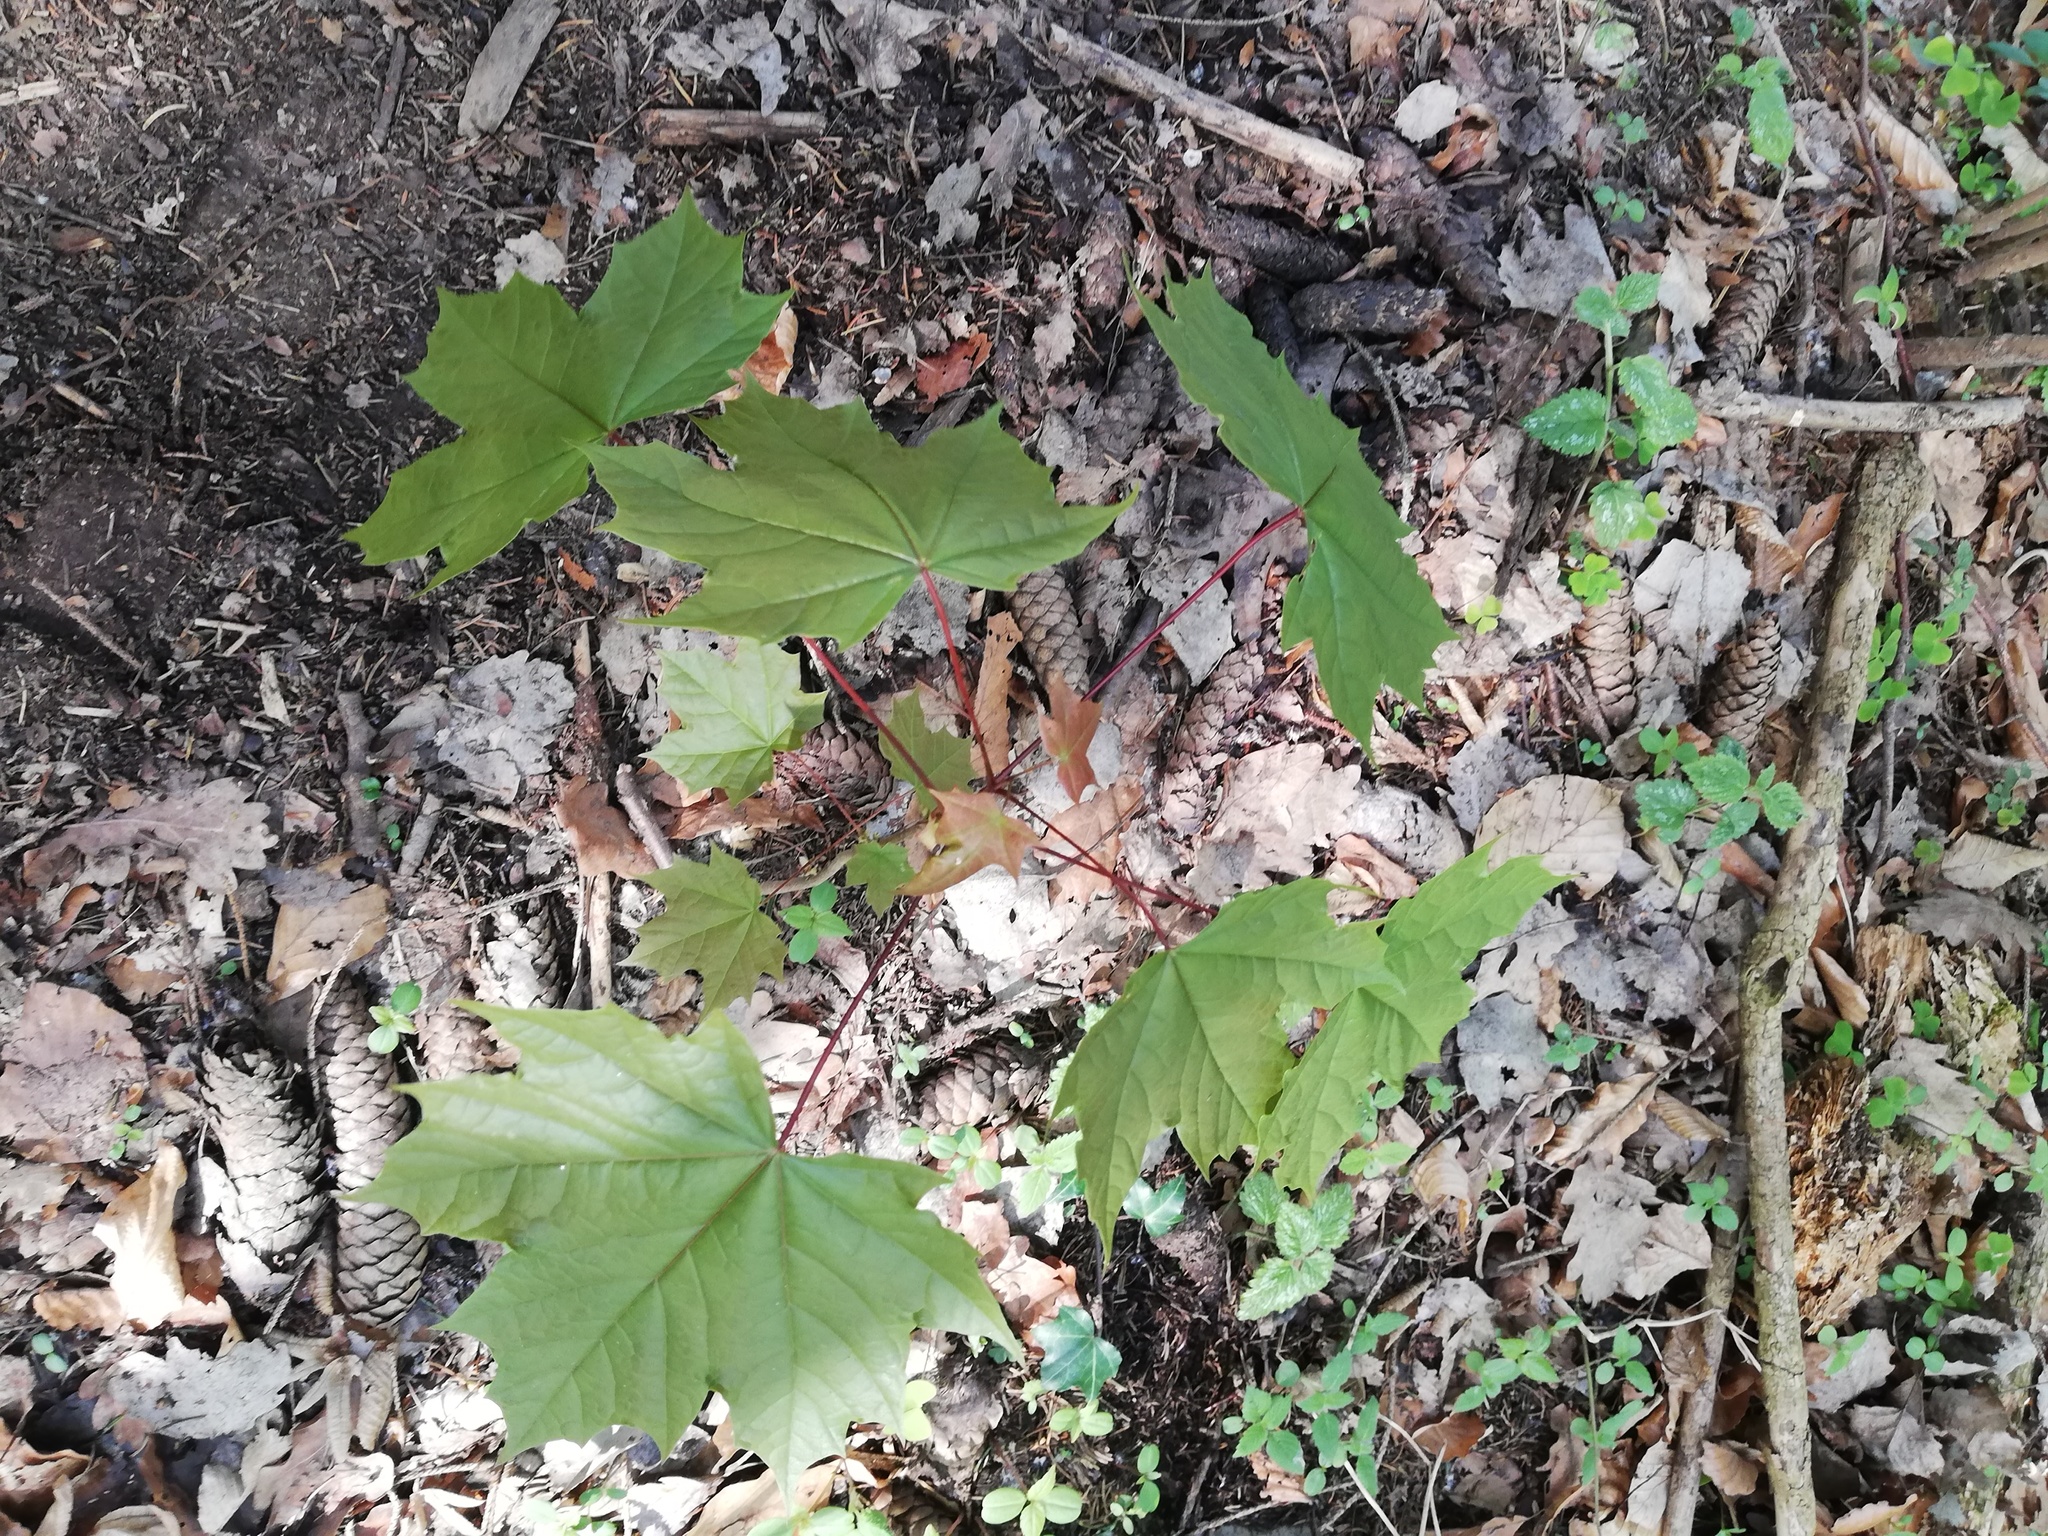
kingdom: Plantae
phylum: Tracheophyta
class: Magnoliopsida
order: Sapindales
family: Sapindaceae
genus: Acer
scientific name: Acer platanoides
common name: Norway maple
